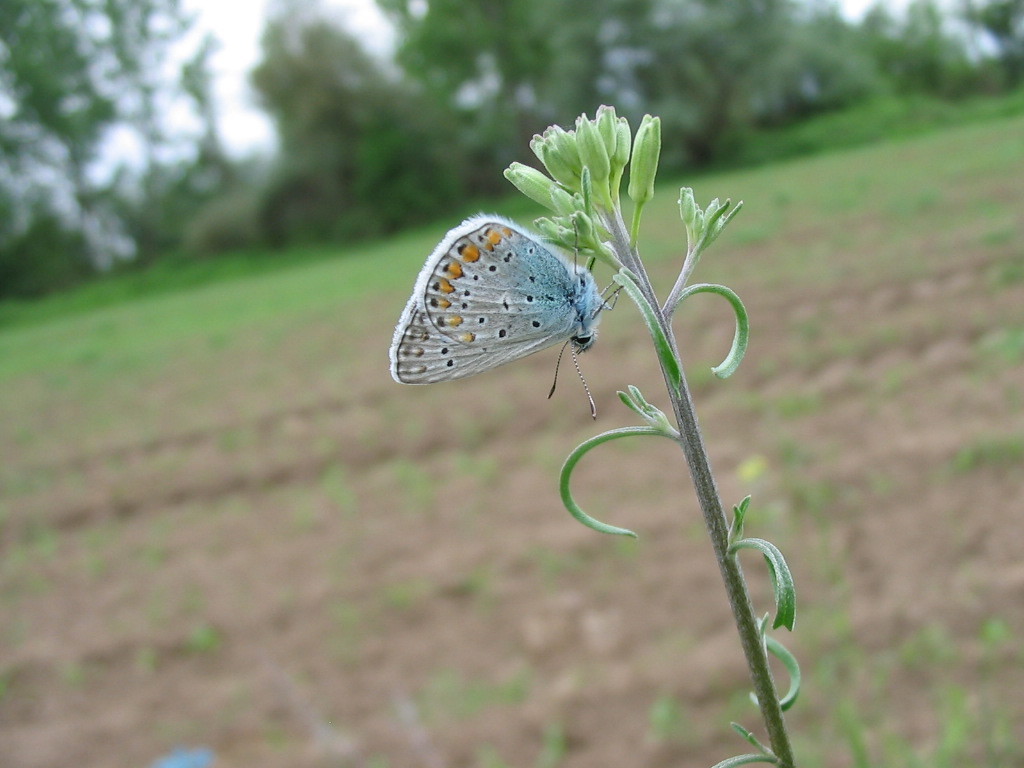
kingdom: Animalia
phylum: Arthropoda
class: Insecta
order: Lepidoptera
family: Lycaenidae
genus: Polyommatus
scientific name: Polyommatus icarus
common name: Common blue
